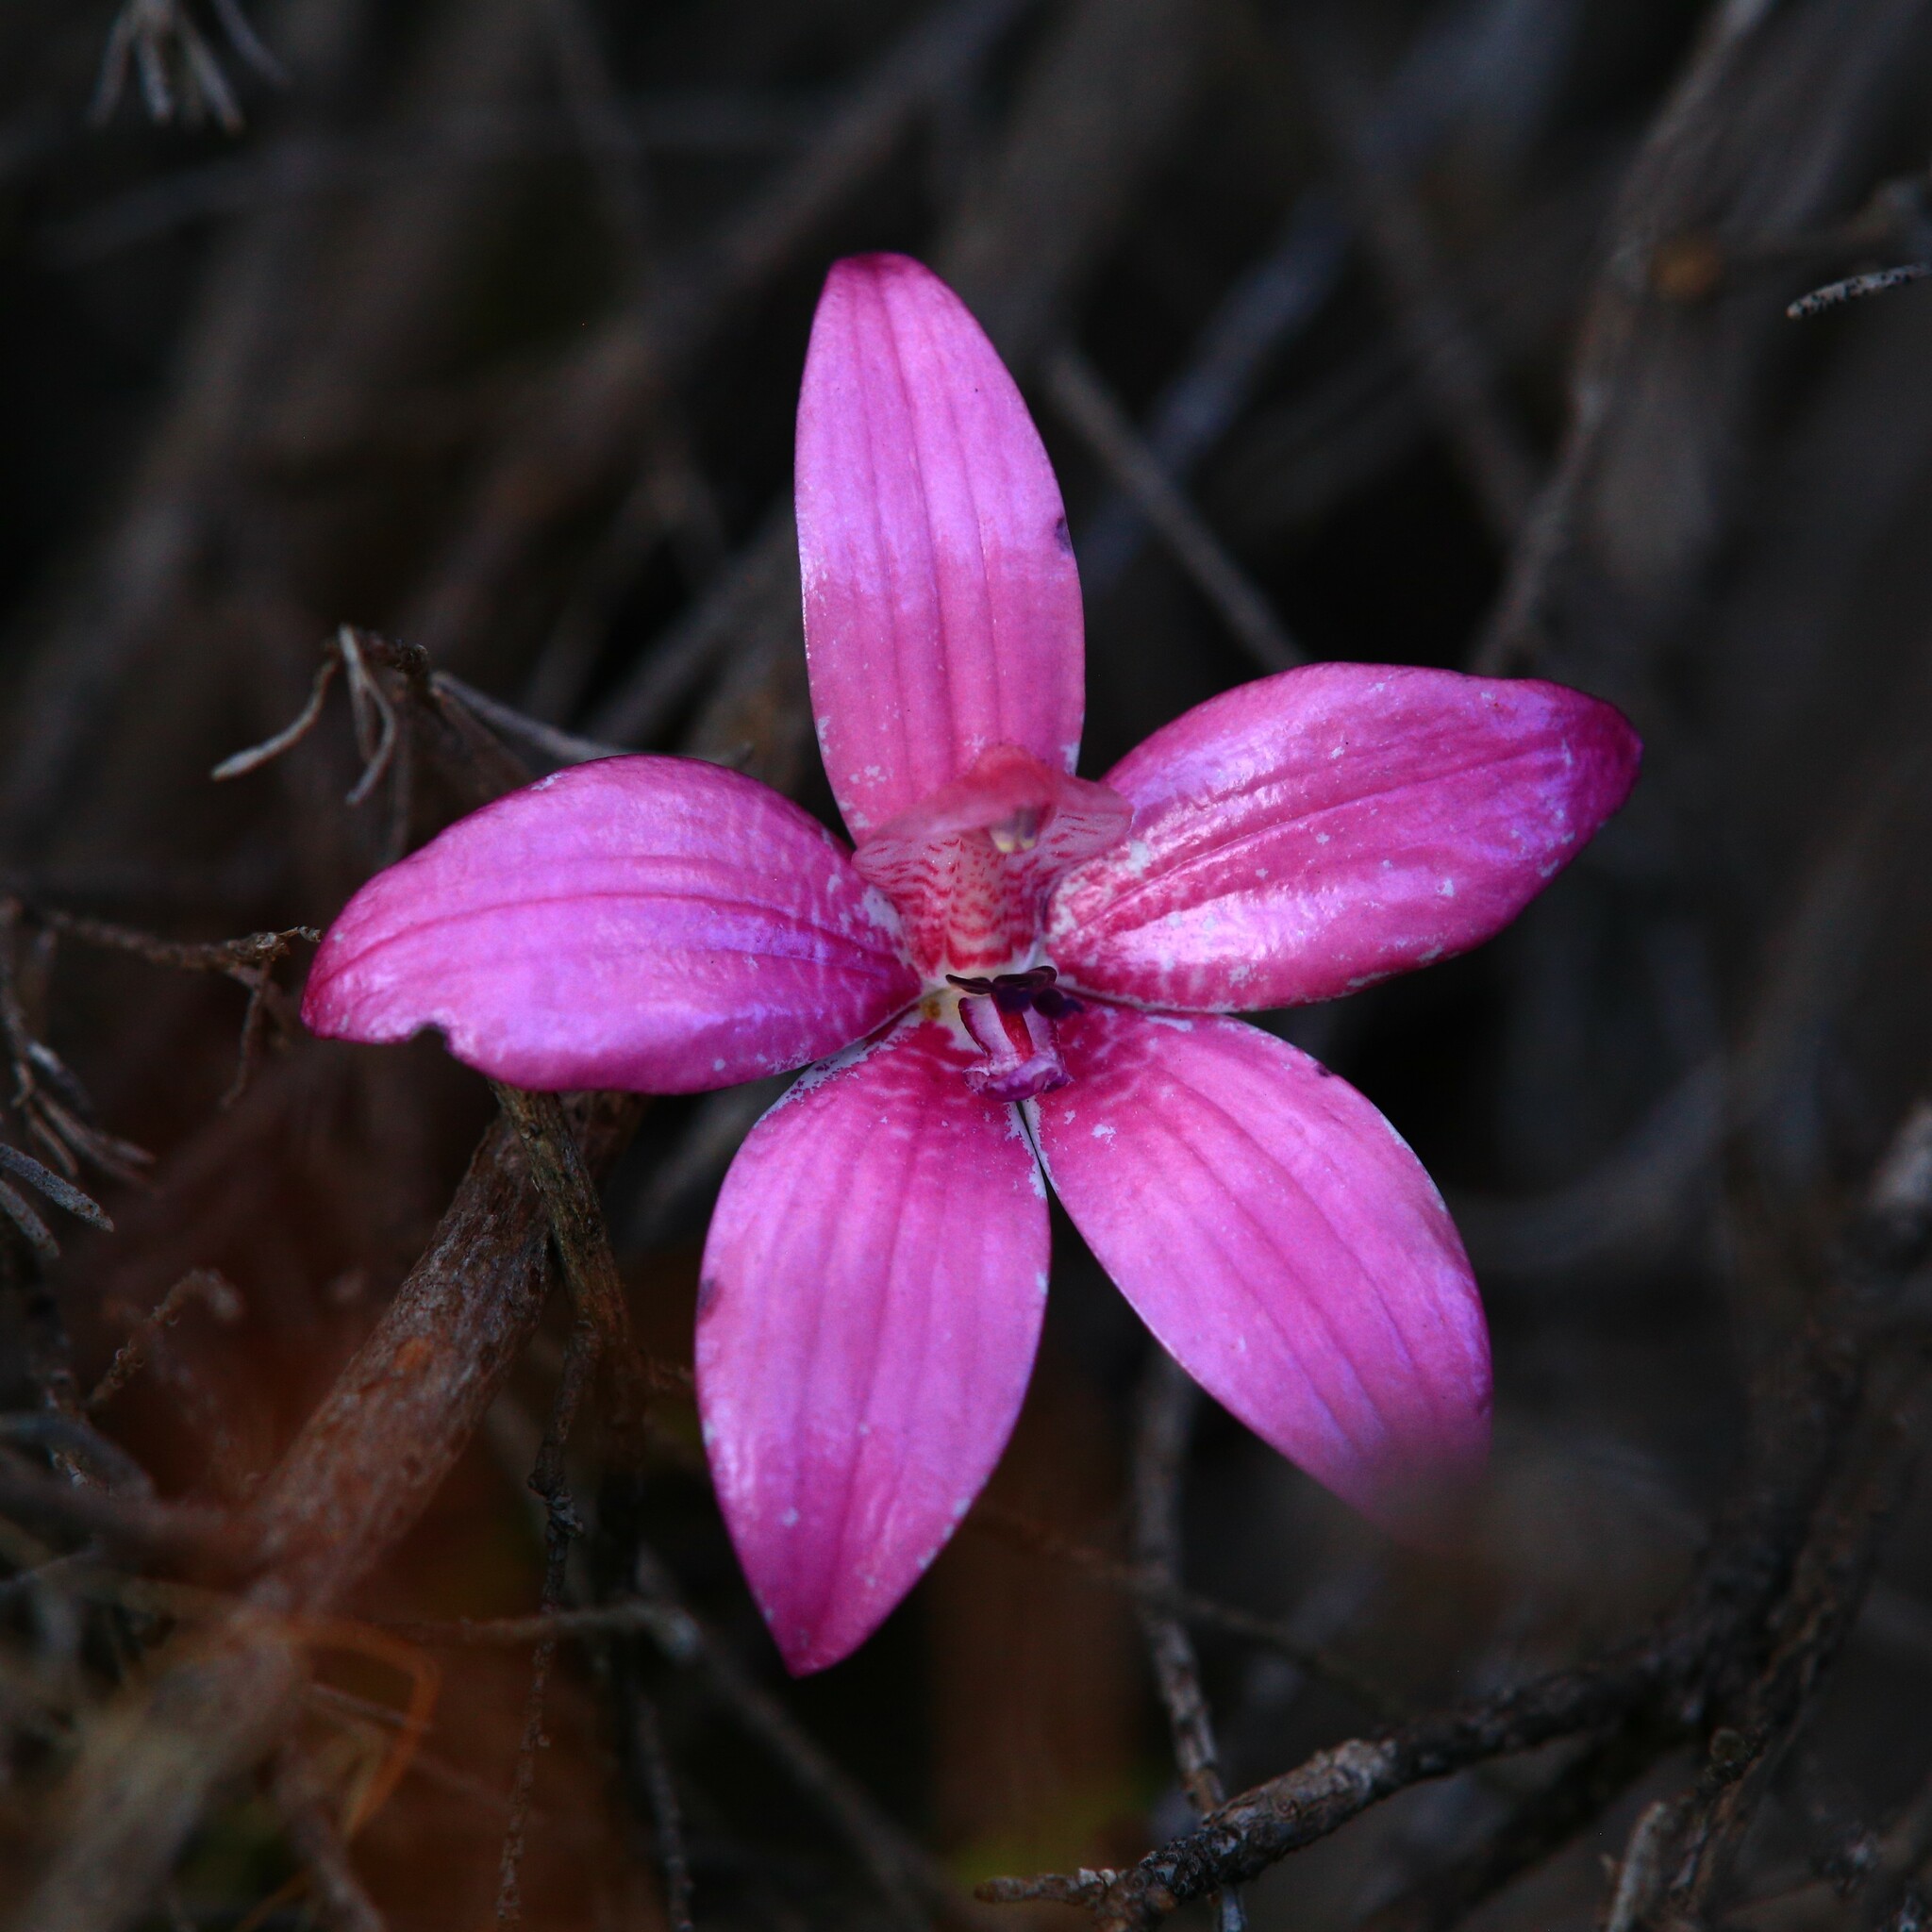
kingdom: Plantae
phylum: Tracheophyta
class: Liliopsida
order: Asparagales
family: Orchidaceae
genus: Caladenia
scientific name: Caladenia emarginata
